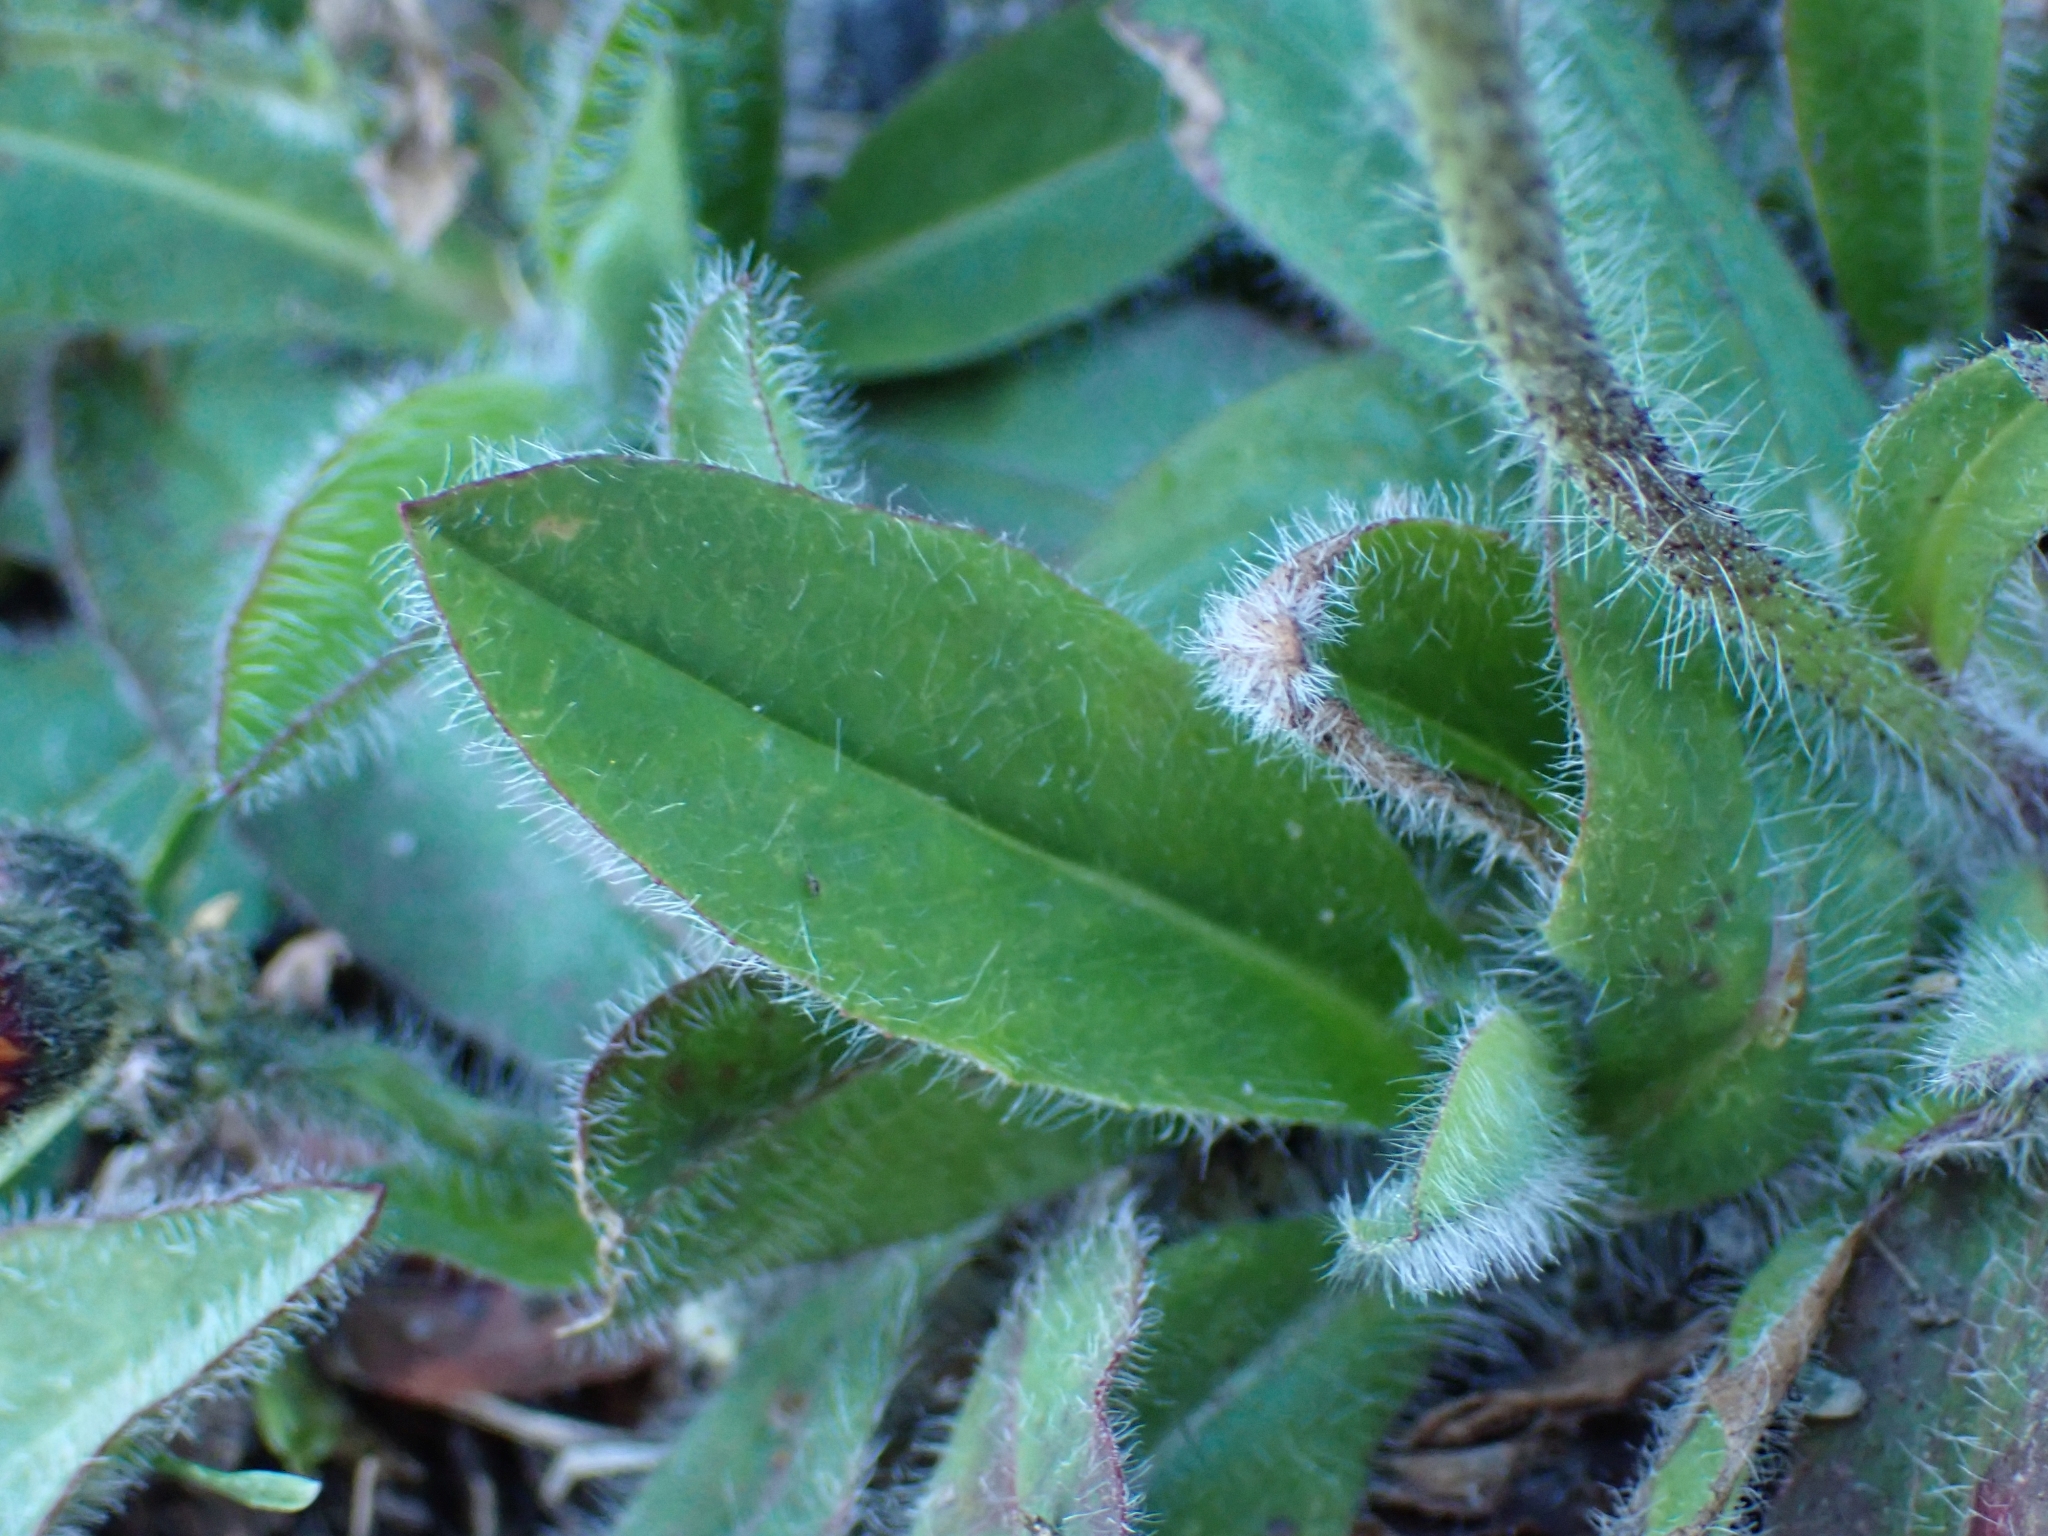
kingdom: Plantae
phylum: Tracheophyta
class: Magnoliopsida
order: Asterales
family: Asteraceae
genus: Pilosella
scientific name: Pilosella aurantiaca
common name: Fox-and-cubs
